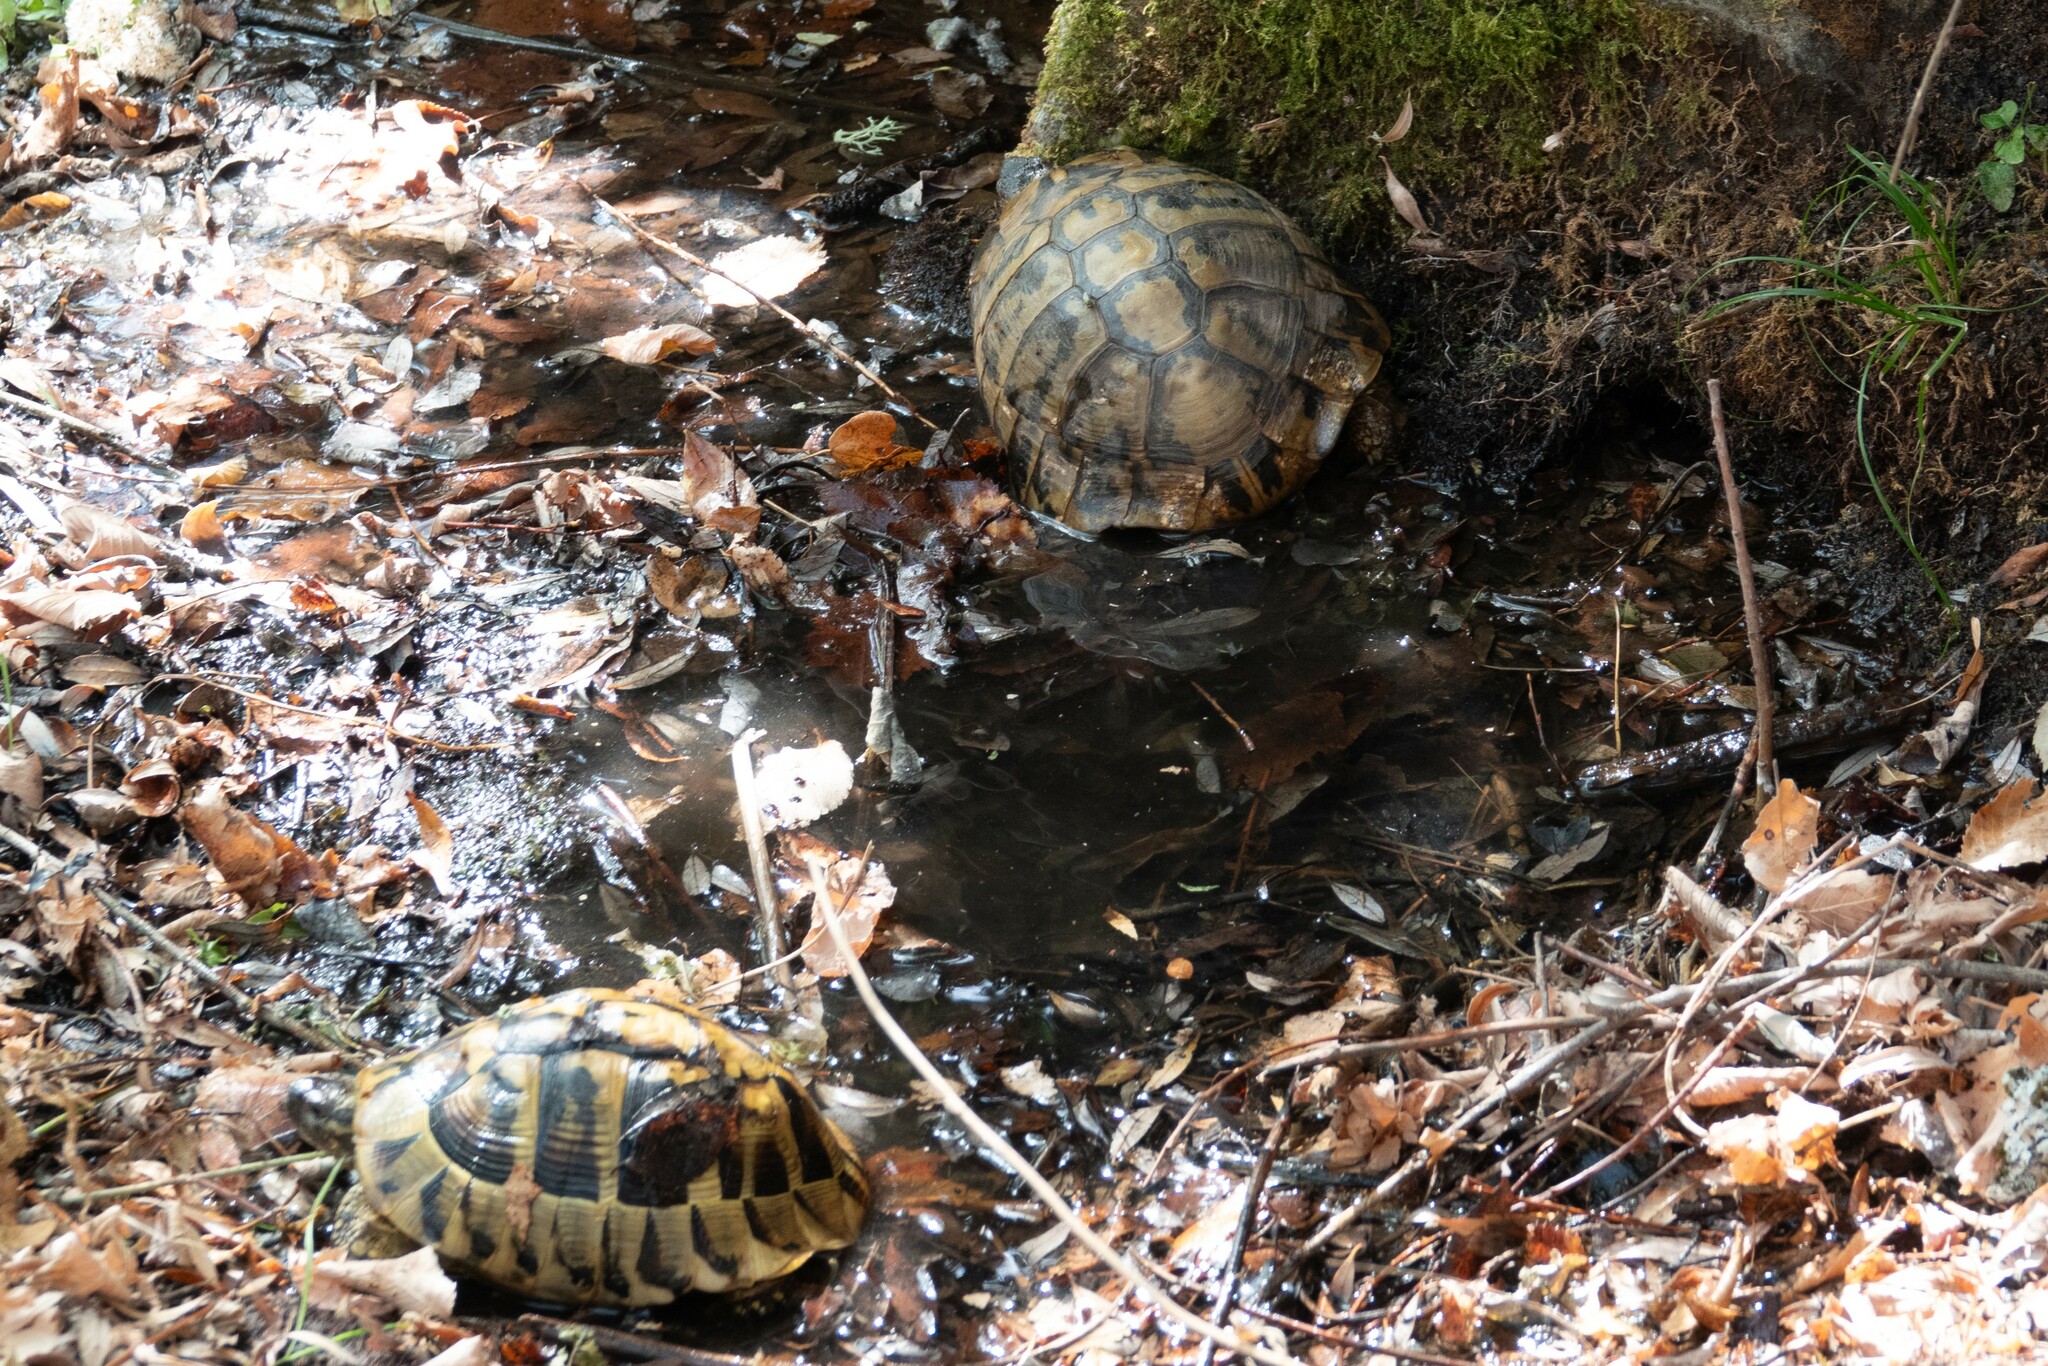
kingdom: Animalia
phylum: Chordata
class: Testudines
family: Testudinidae
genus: Testudo
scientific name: Testudo hermanni
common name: Hermann's tortoise
